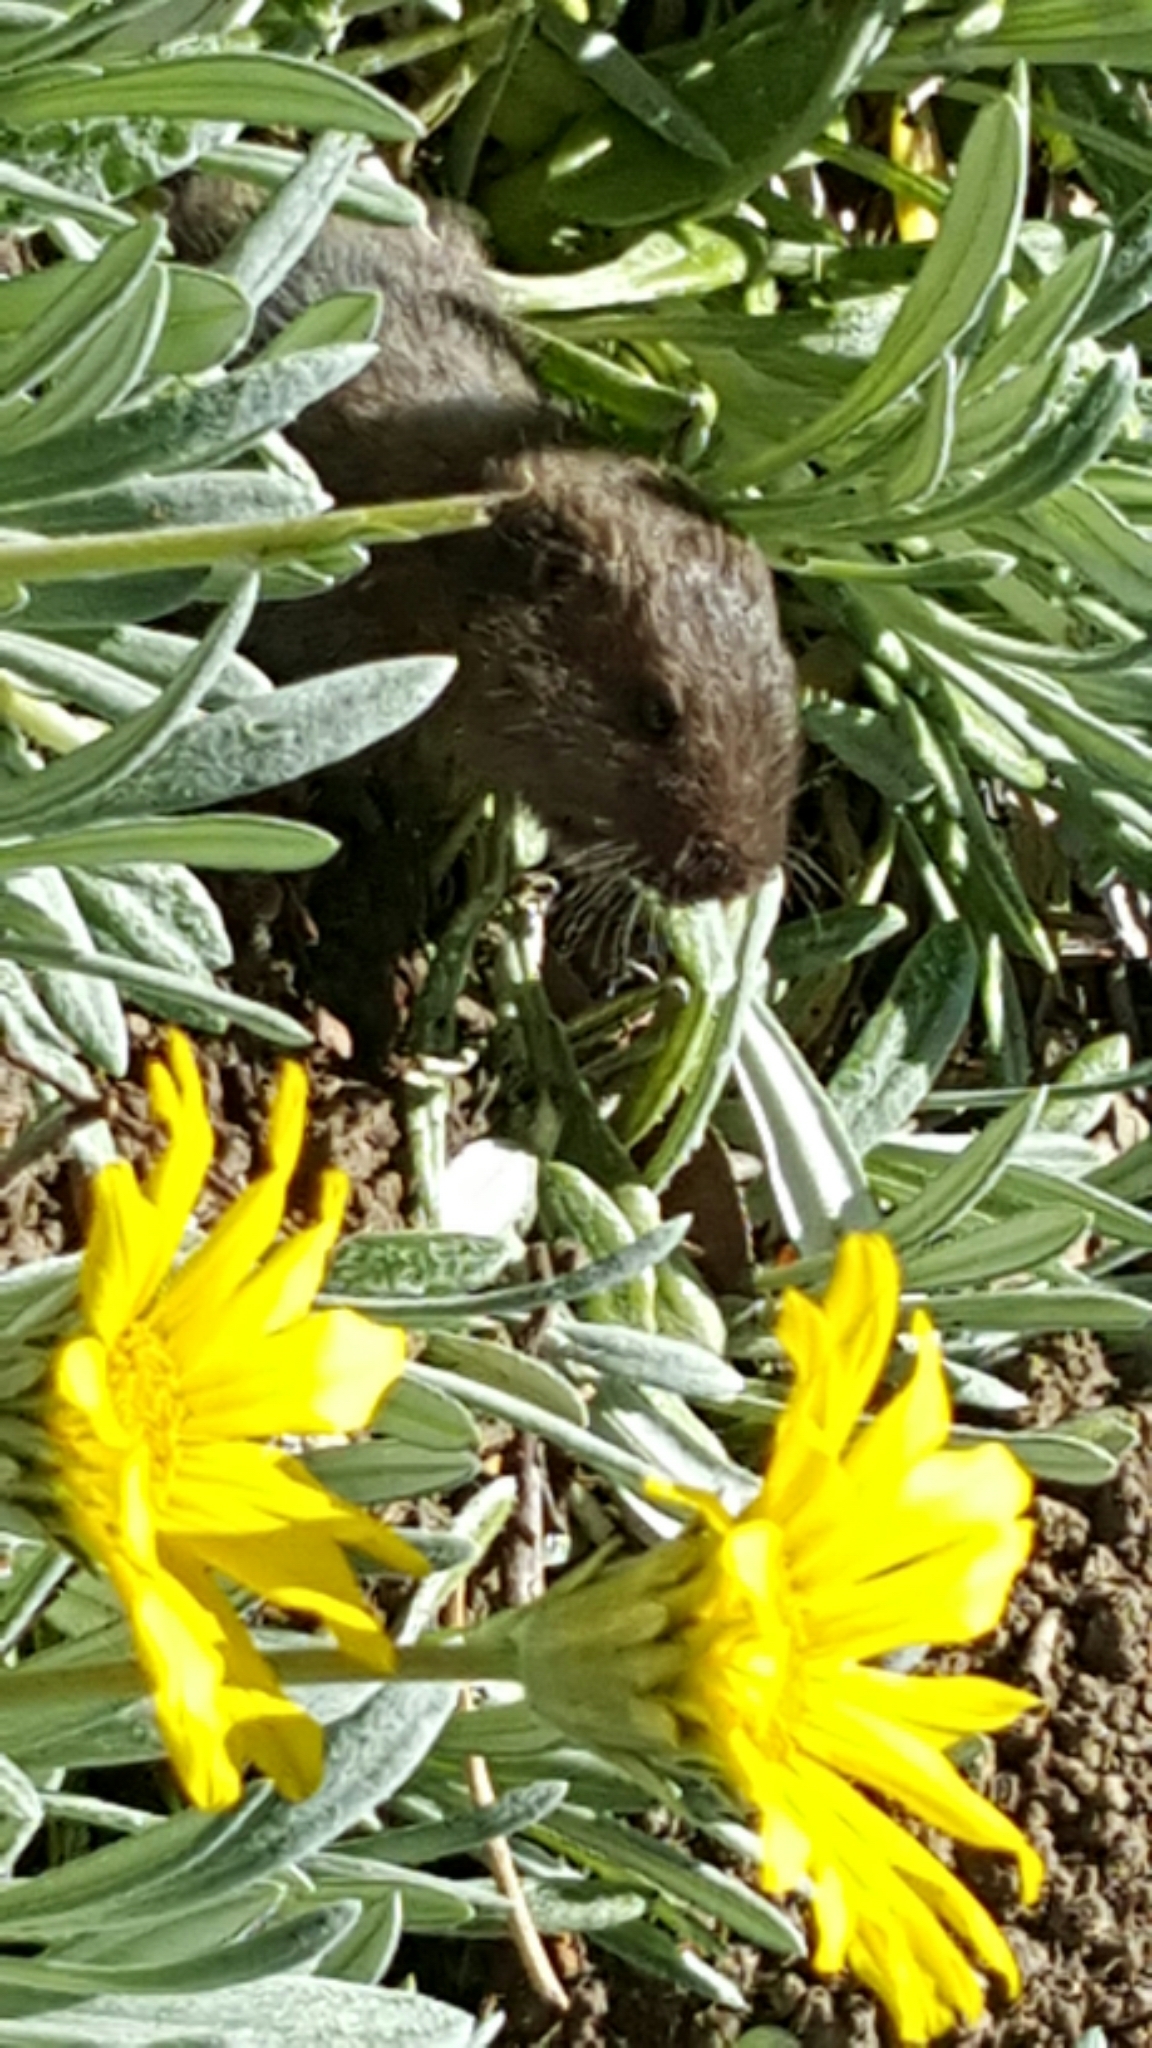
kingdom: Animalia
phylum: Chordata
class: Mammalia
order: Rodentia
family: Geomyidae
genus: Thomomys
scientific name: Thomomys bottae
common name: Botta's pocket gopher
